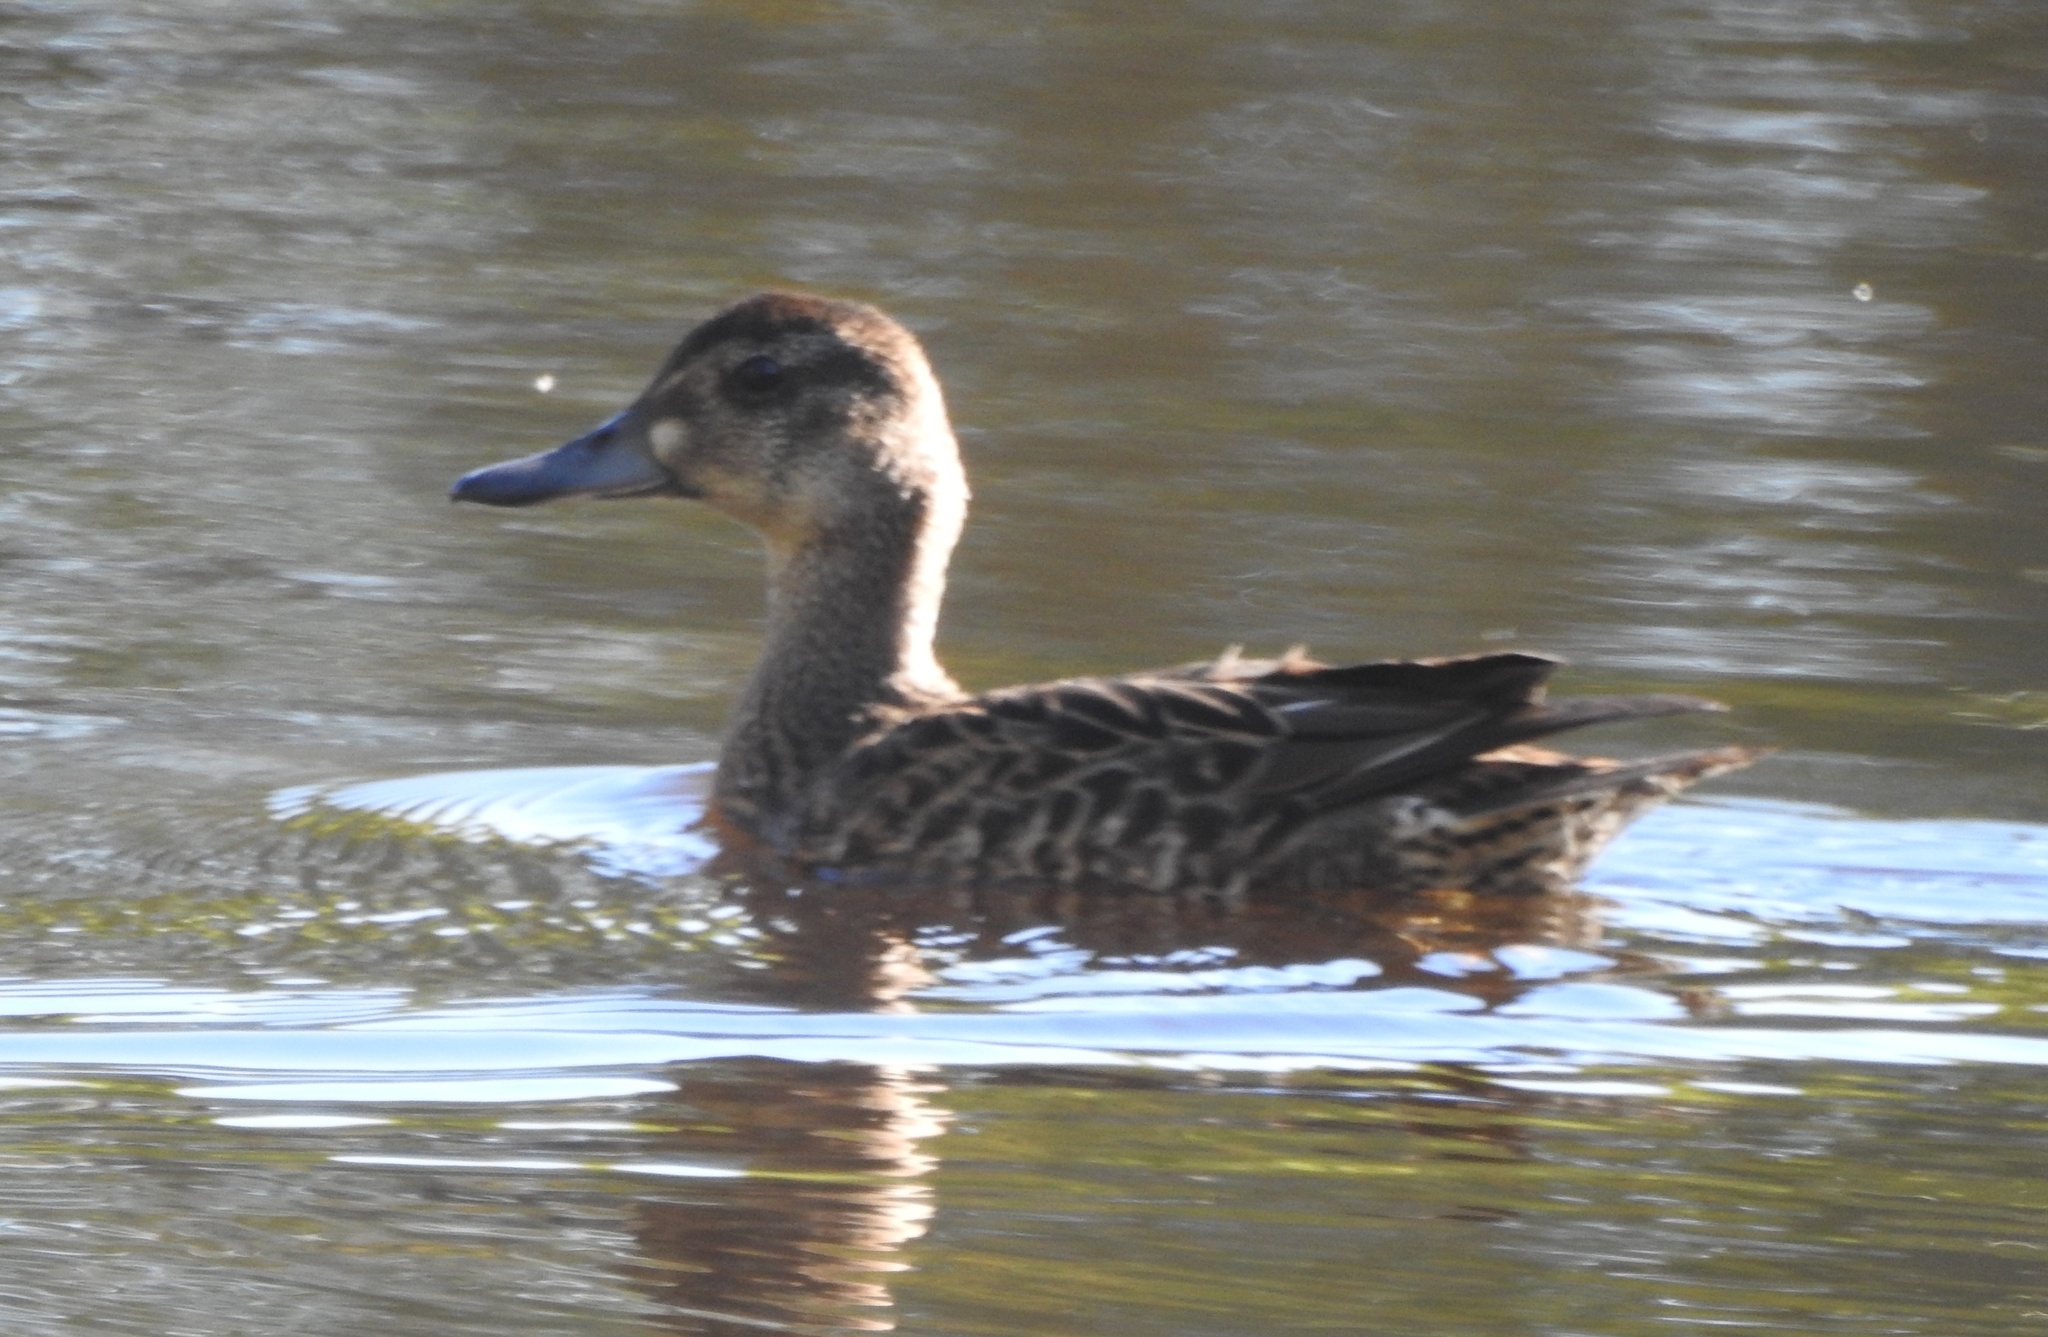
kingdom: Animalia
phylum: Chordata
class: Aves
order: Anseriformes
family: Anatidae
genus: Sibirionetta
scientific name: Sibirionetta formosa
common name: Baikal teal
